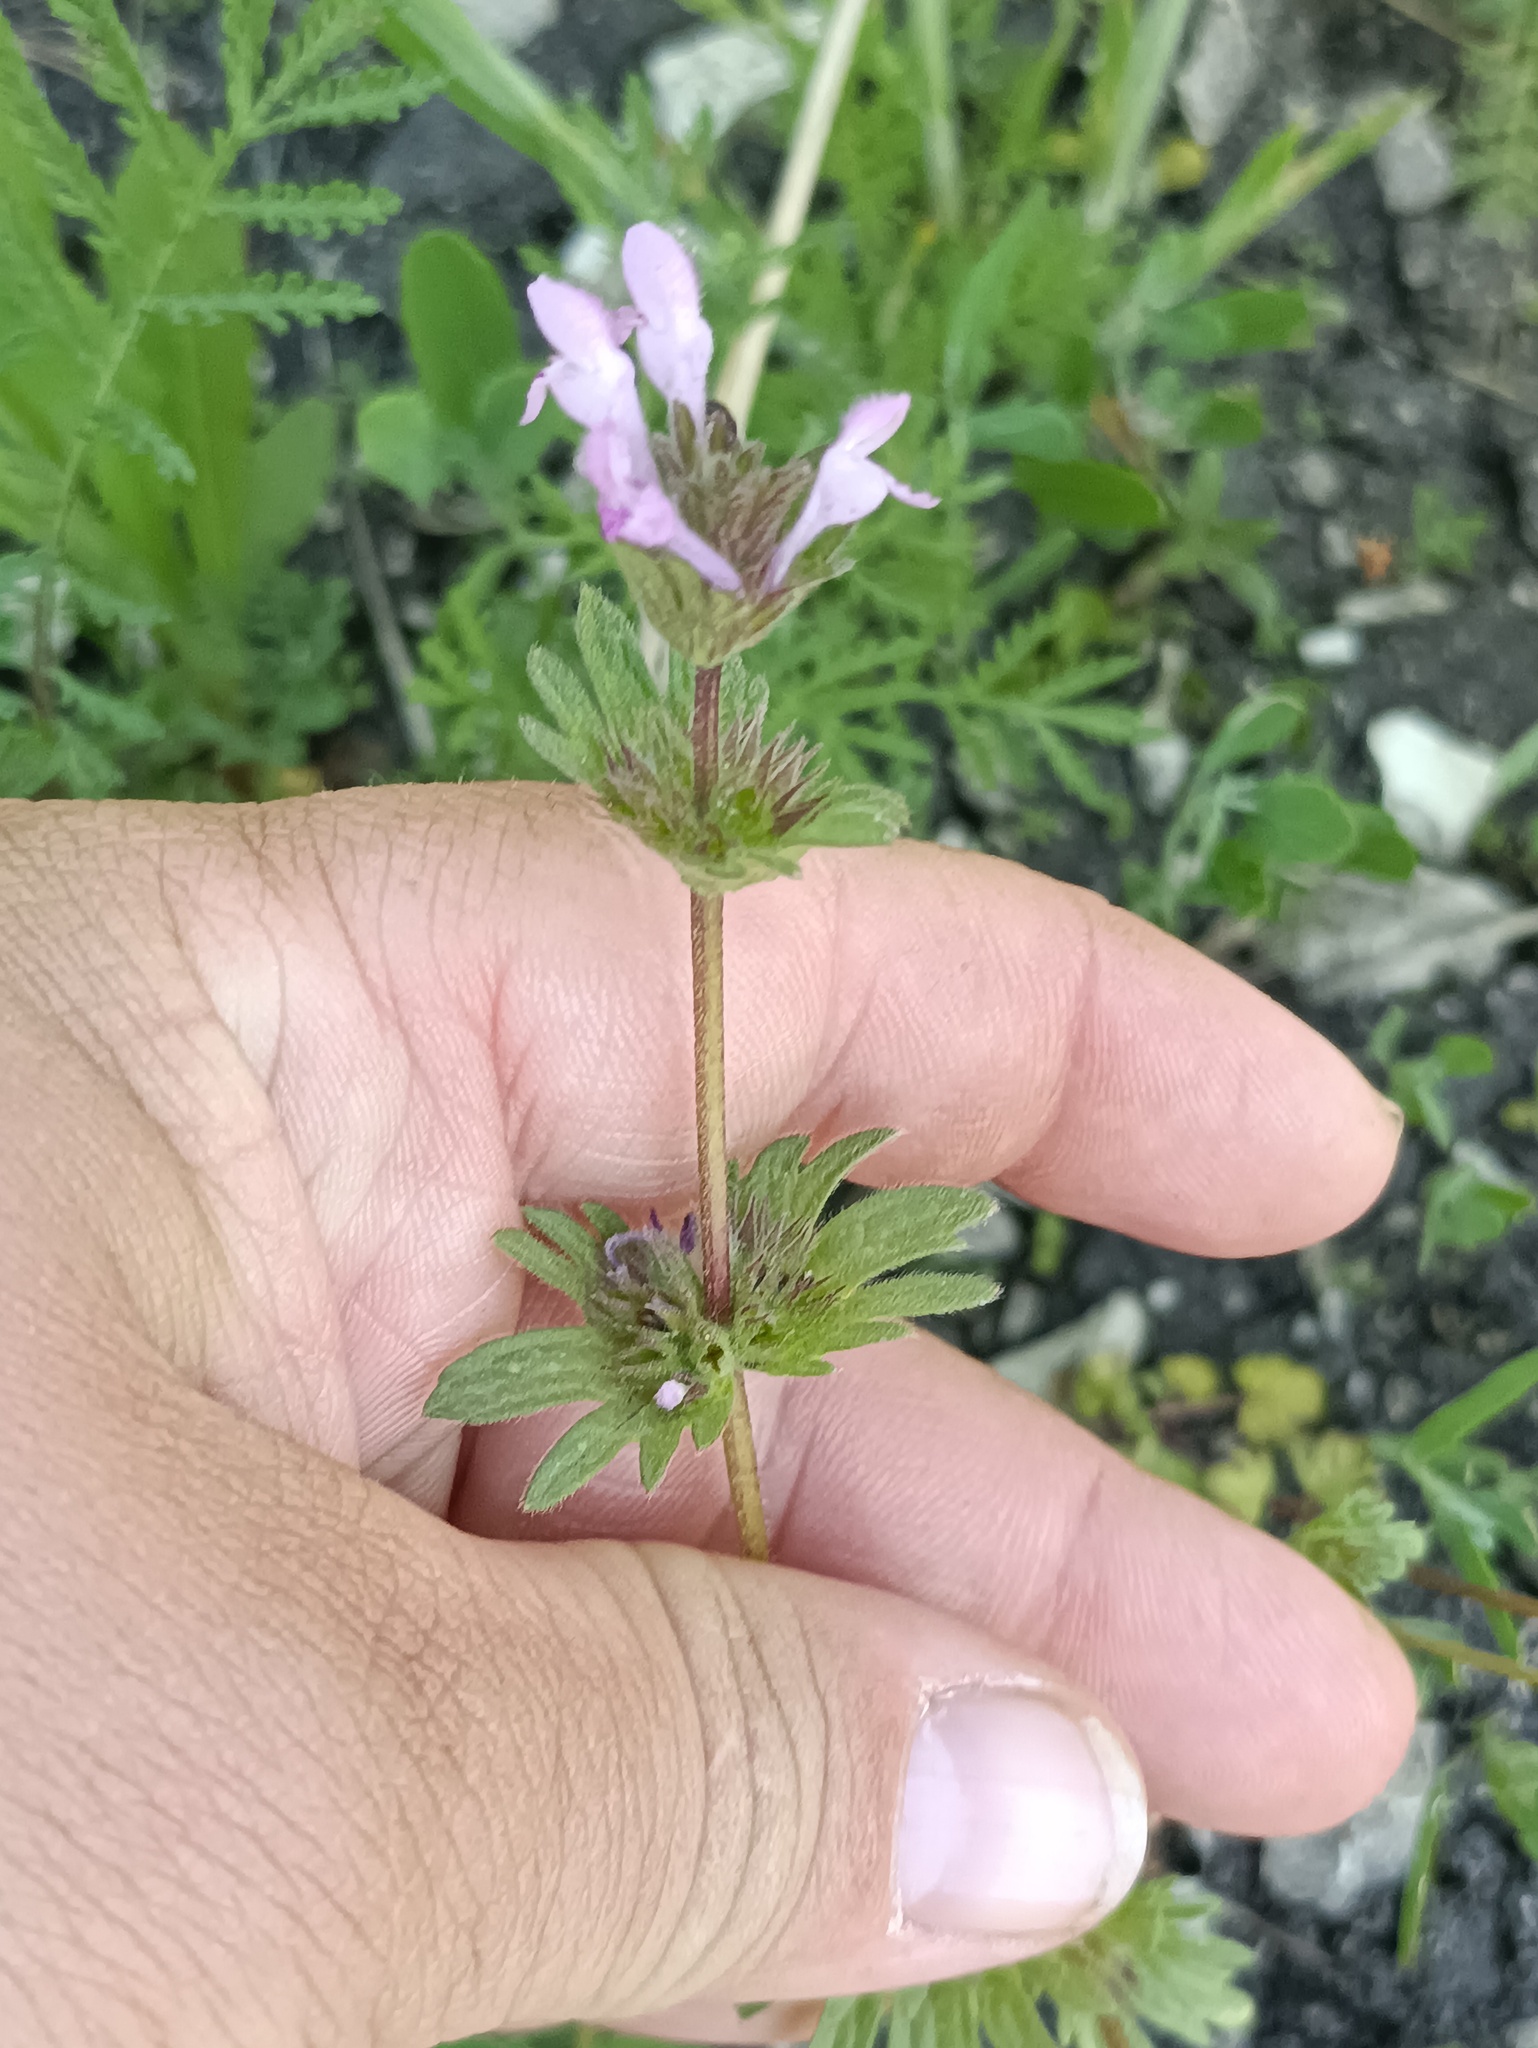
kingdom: Plantae
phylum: Tracheophyta
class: Magnoliopsida
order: Lamiales
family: Lamiaceae
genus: Lamium
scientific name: Lamium amplexicaule
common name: Henbit dead-nettle
